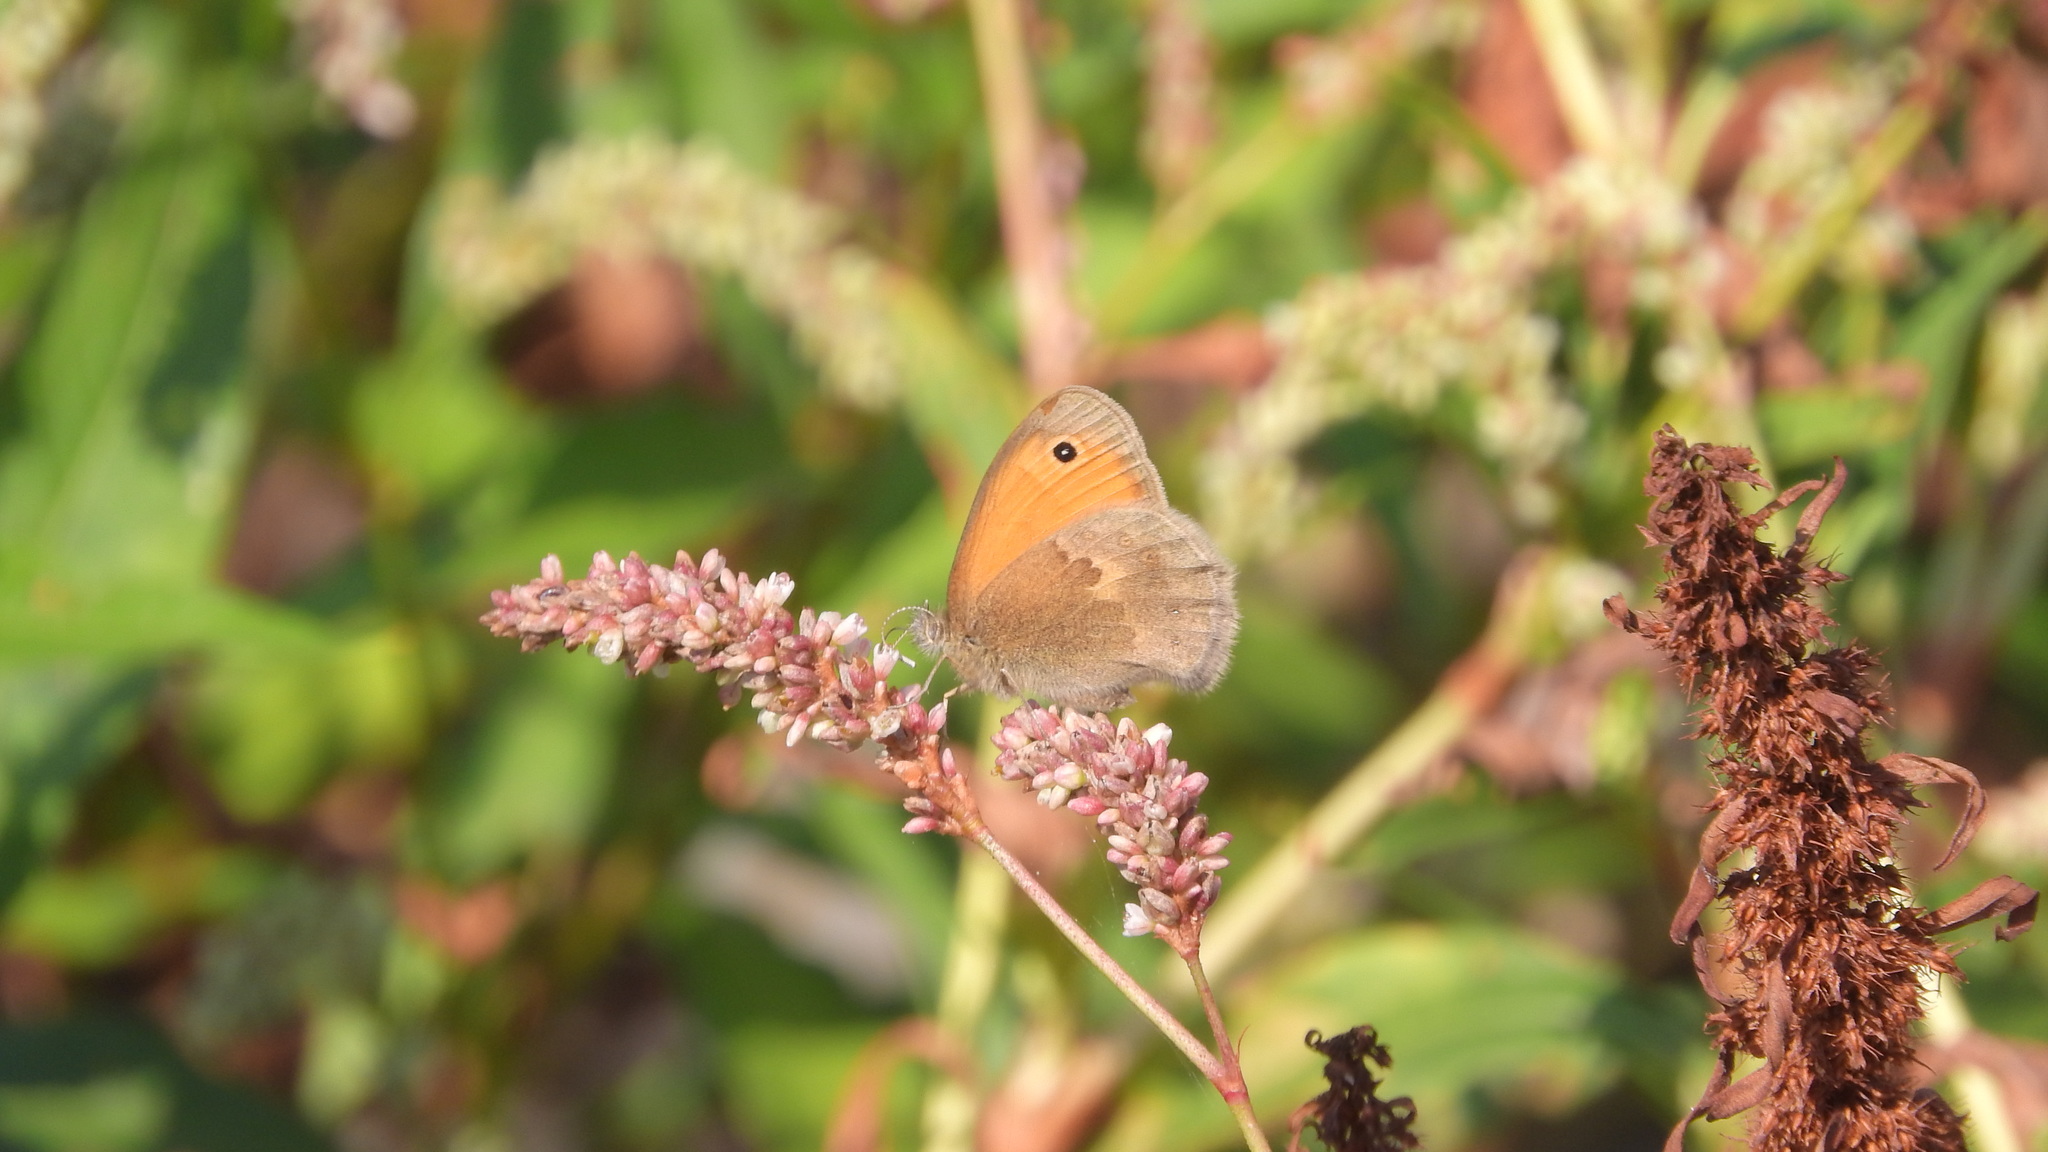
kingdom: Animalia
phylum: Arthropoda
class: Insecta
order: Lepidoptera
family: Nymphalidae
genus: Coenonympha
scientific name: Coenonympha pamphilus
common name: Small heath
